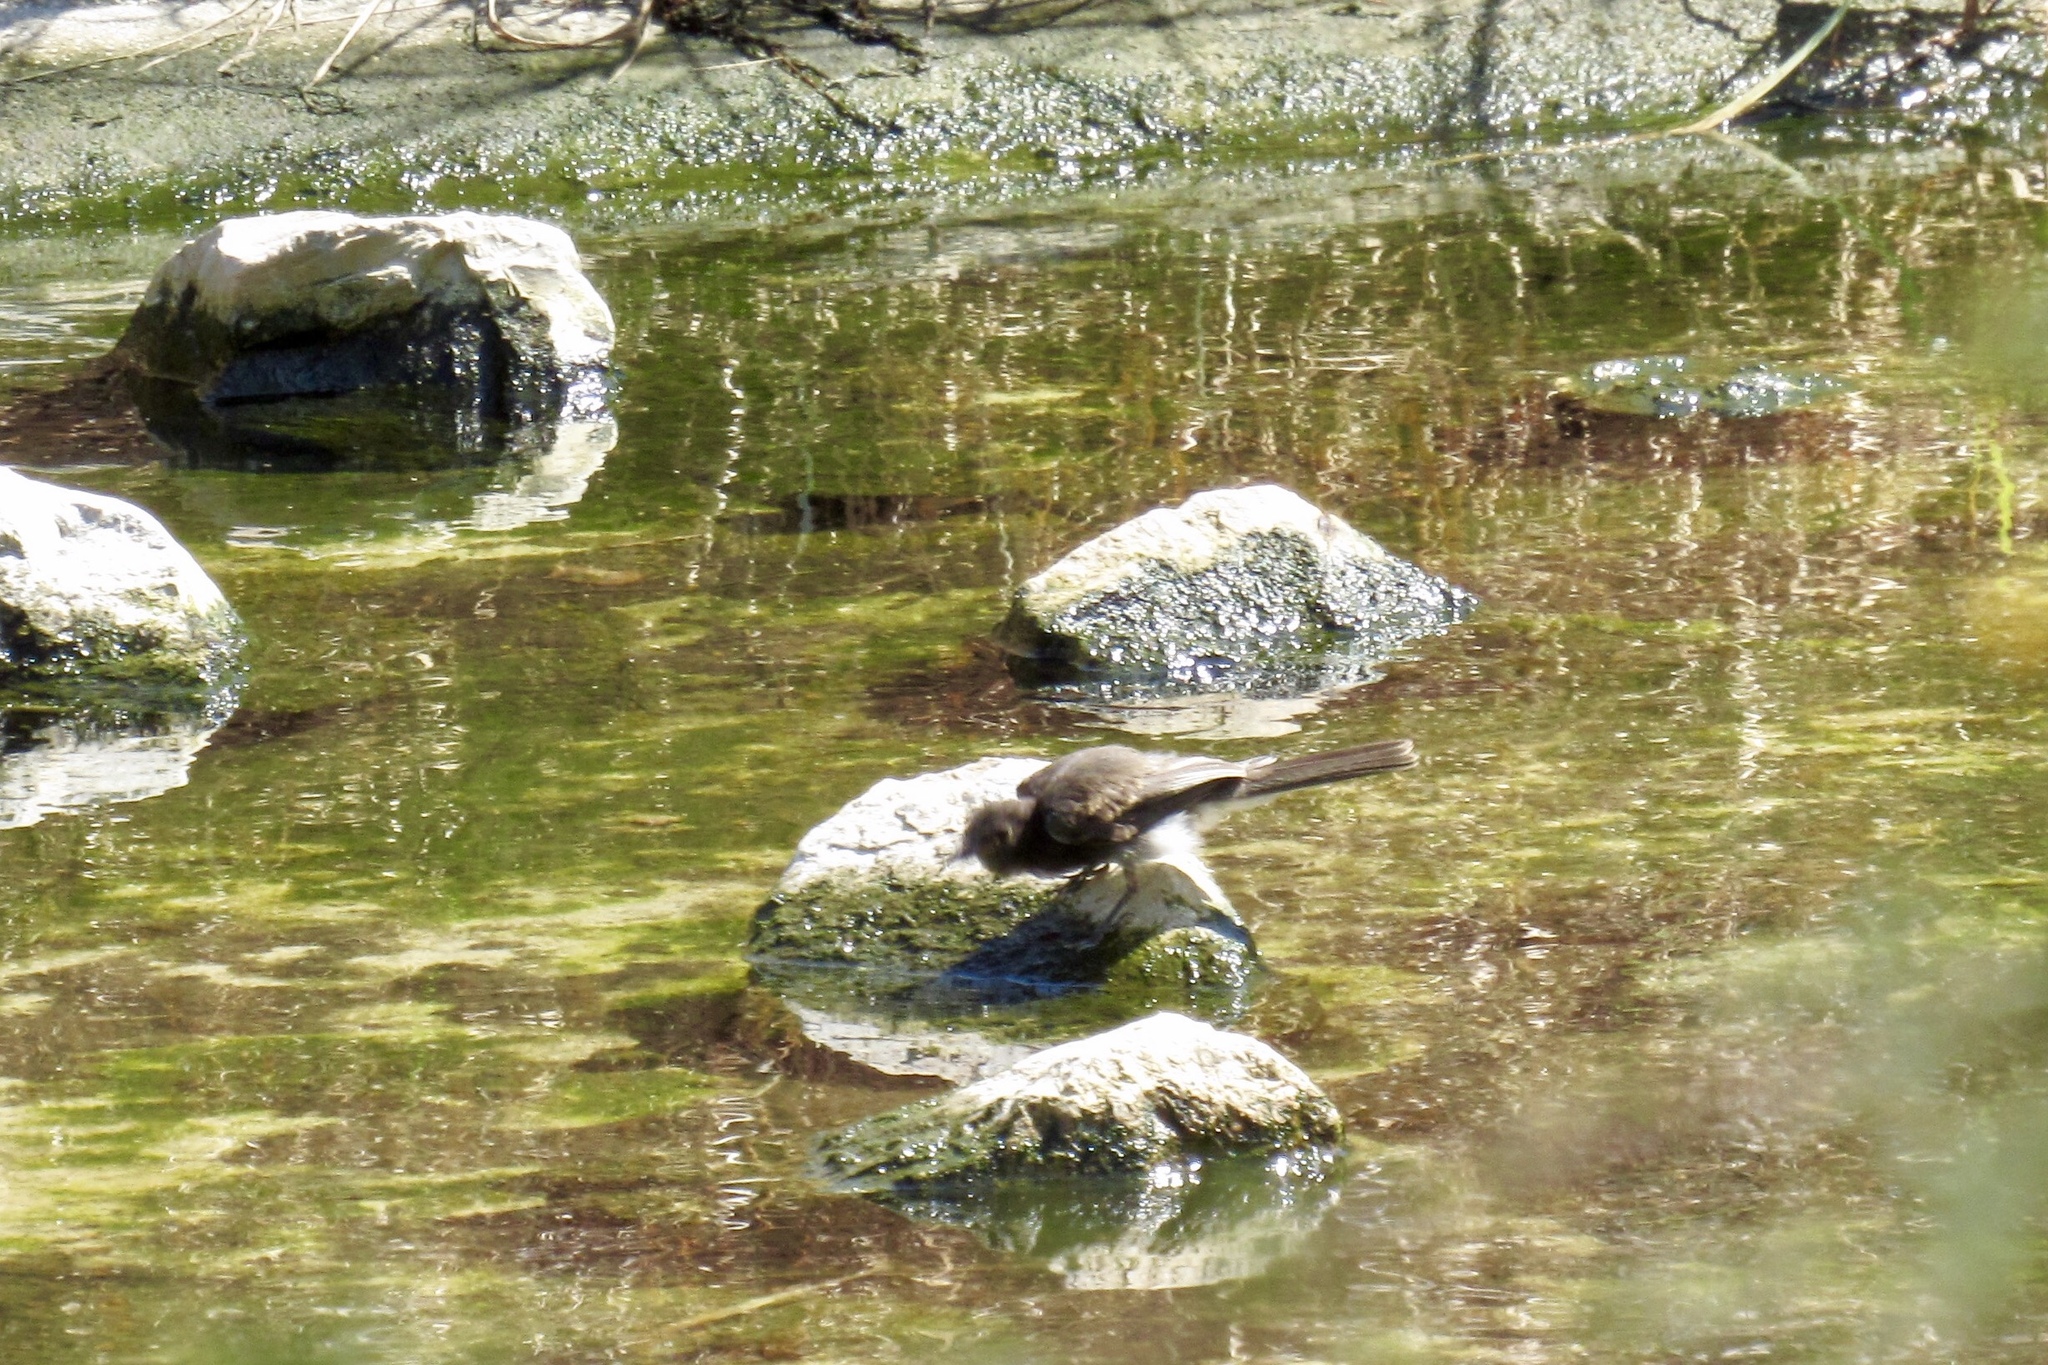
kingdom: Animalia
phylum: Chordata
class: Aves
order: Passeriformes
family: Tyrannidae
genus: Sayornis
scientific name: Sayornis nigricans
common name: Black phoebe
